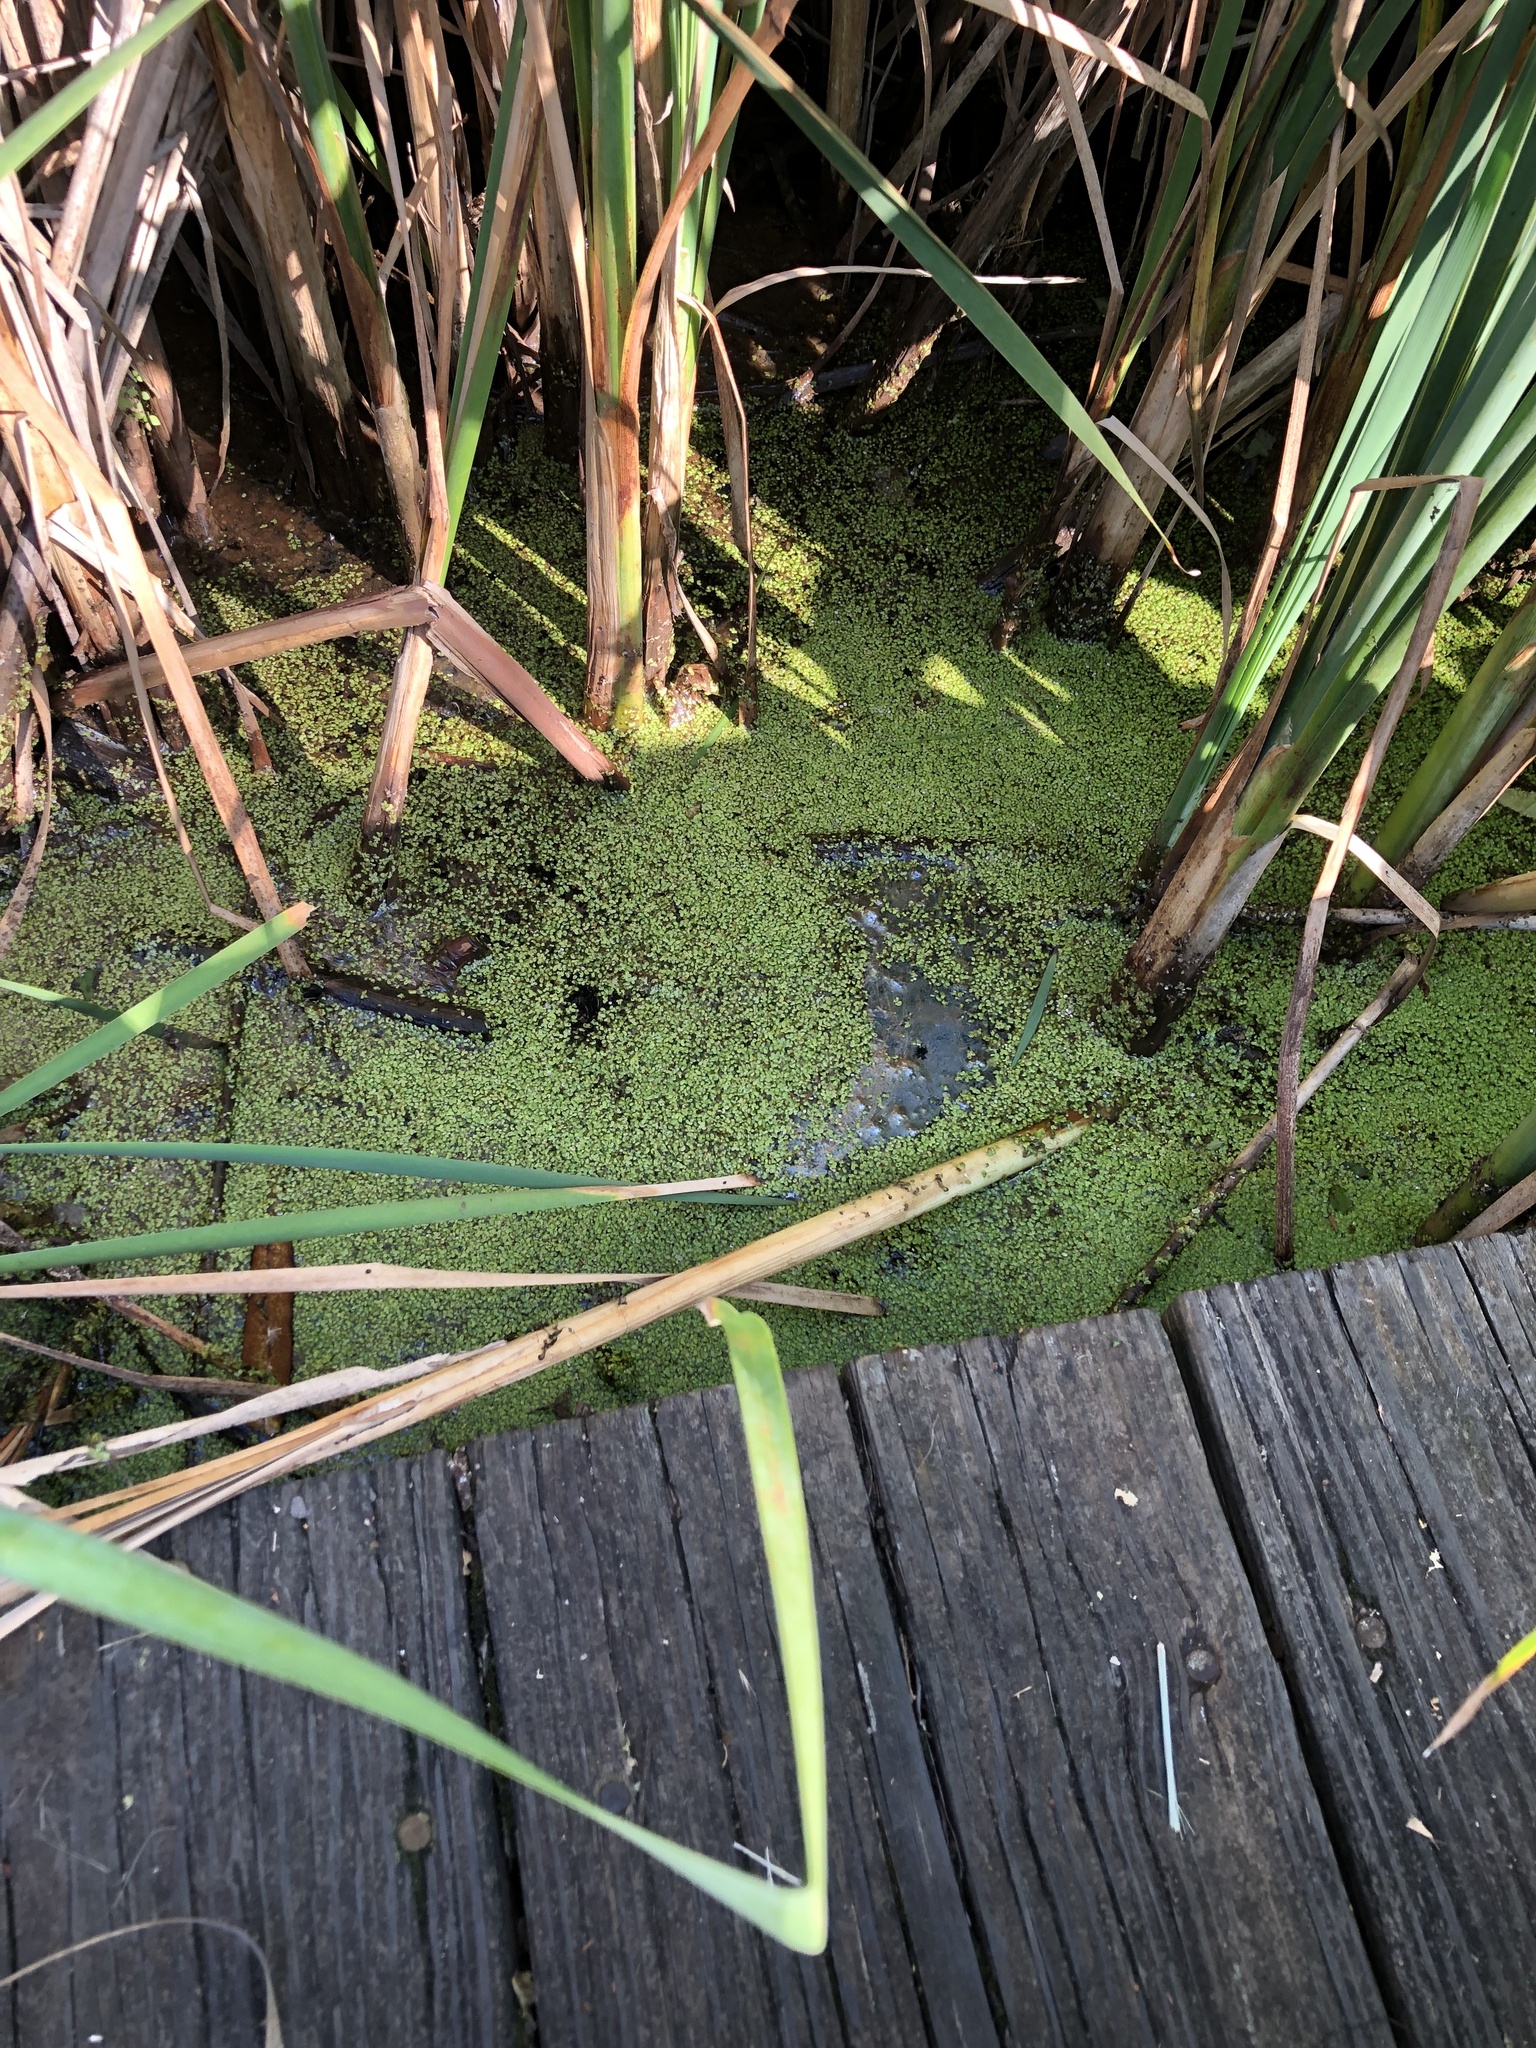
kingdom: Plantae
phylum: Tracheophyta
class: Liliopsida
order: Alismatales
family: Araceae
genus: Lemna
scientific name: Lemna minor
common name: Common duckweed
